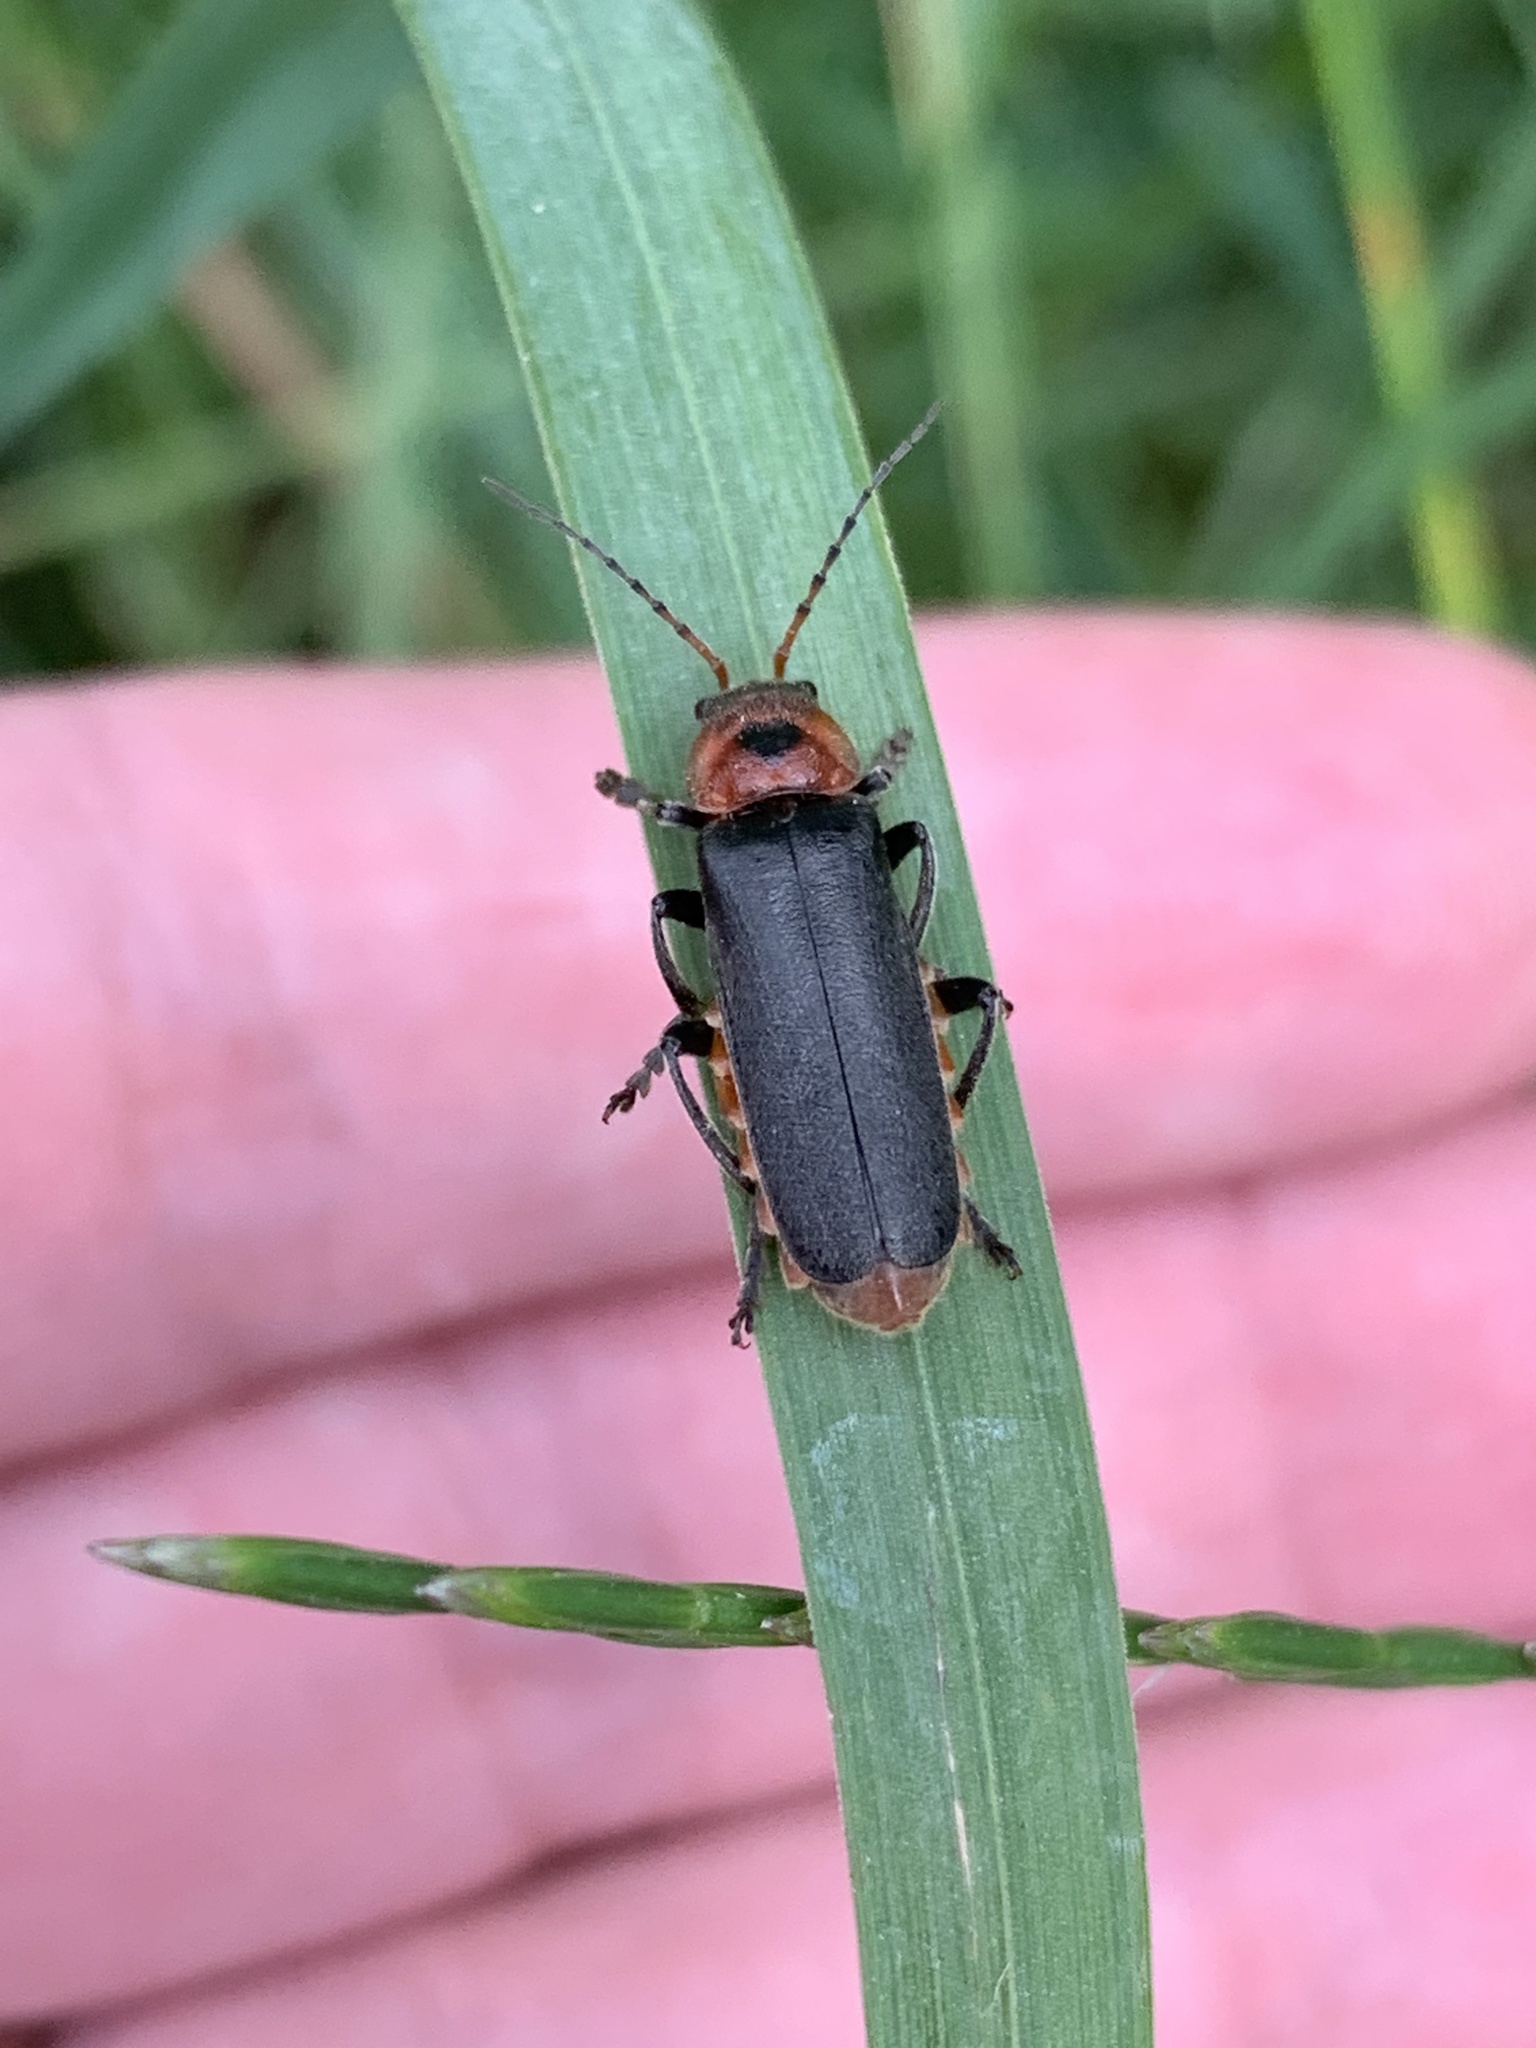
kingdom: Animalia
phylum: Arthropoda
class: Insecta
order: Coleoptera
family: Cantharidae
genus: Cantharis
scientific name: Cantharis rustica
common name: Soldier beetle
